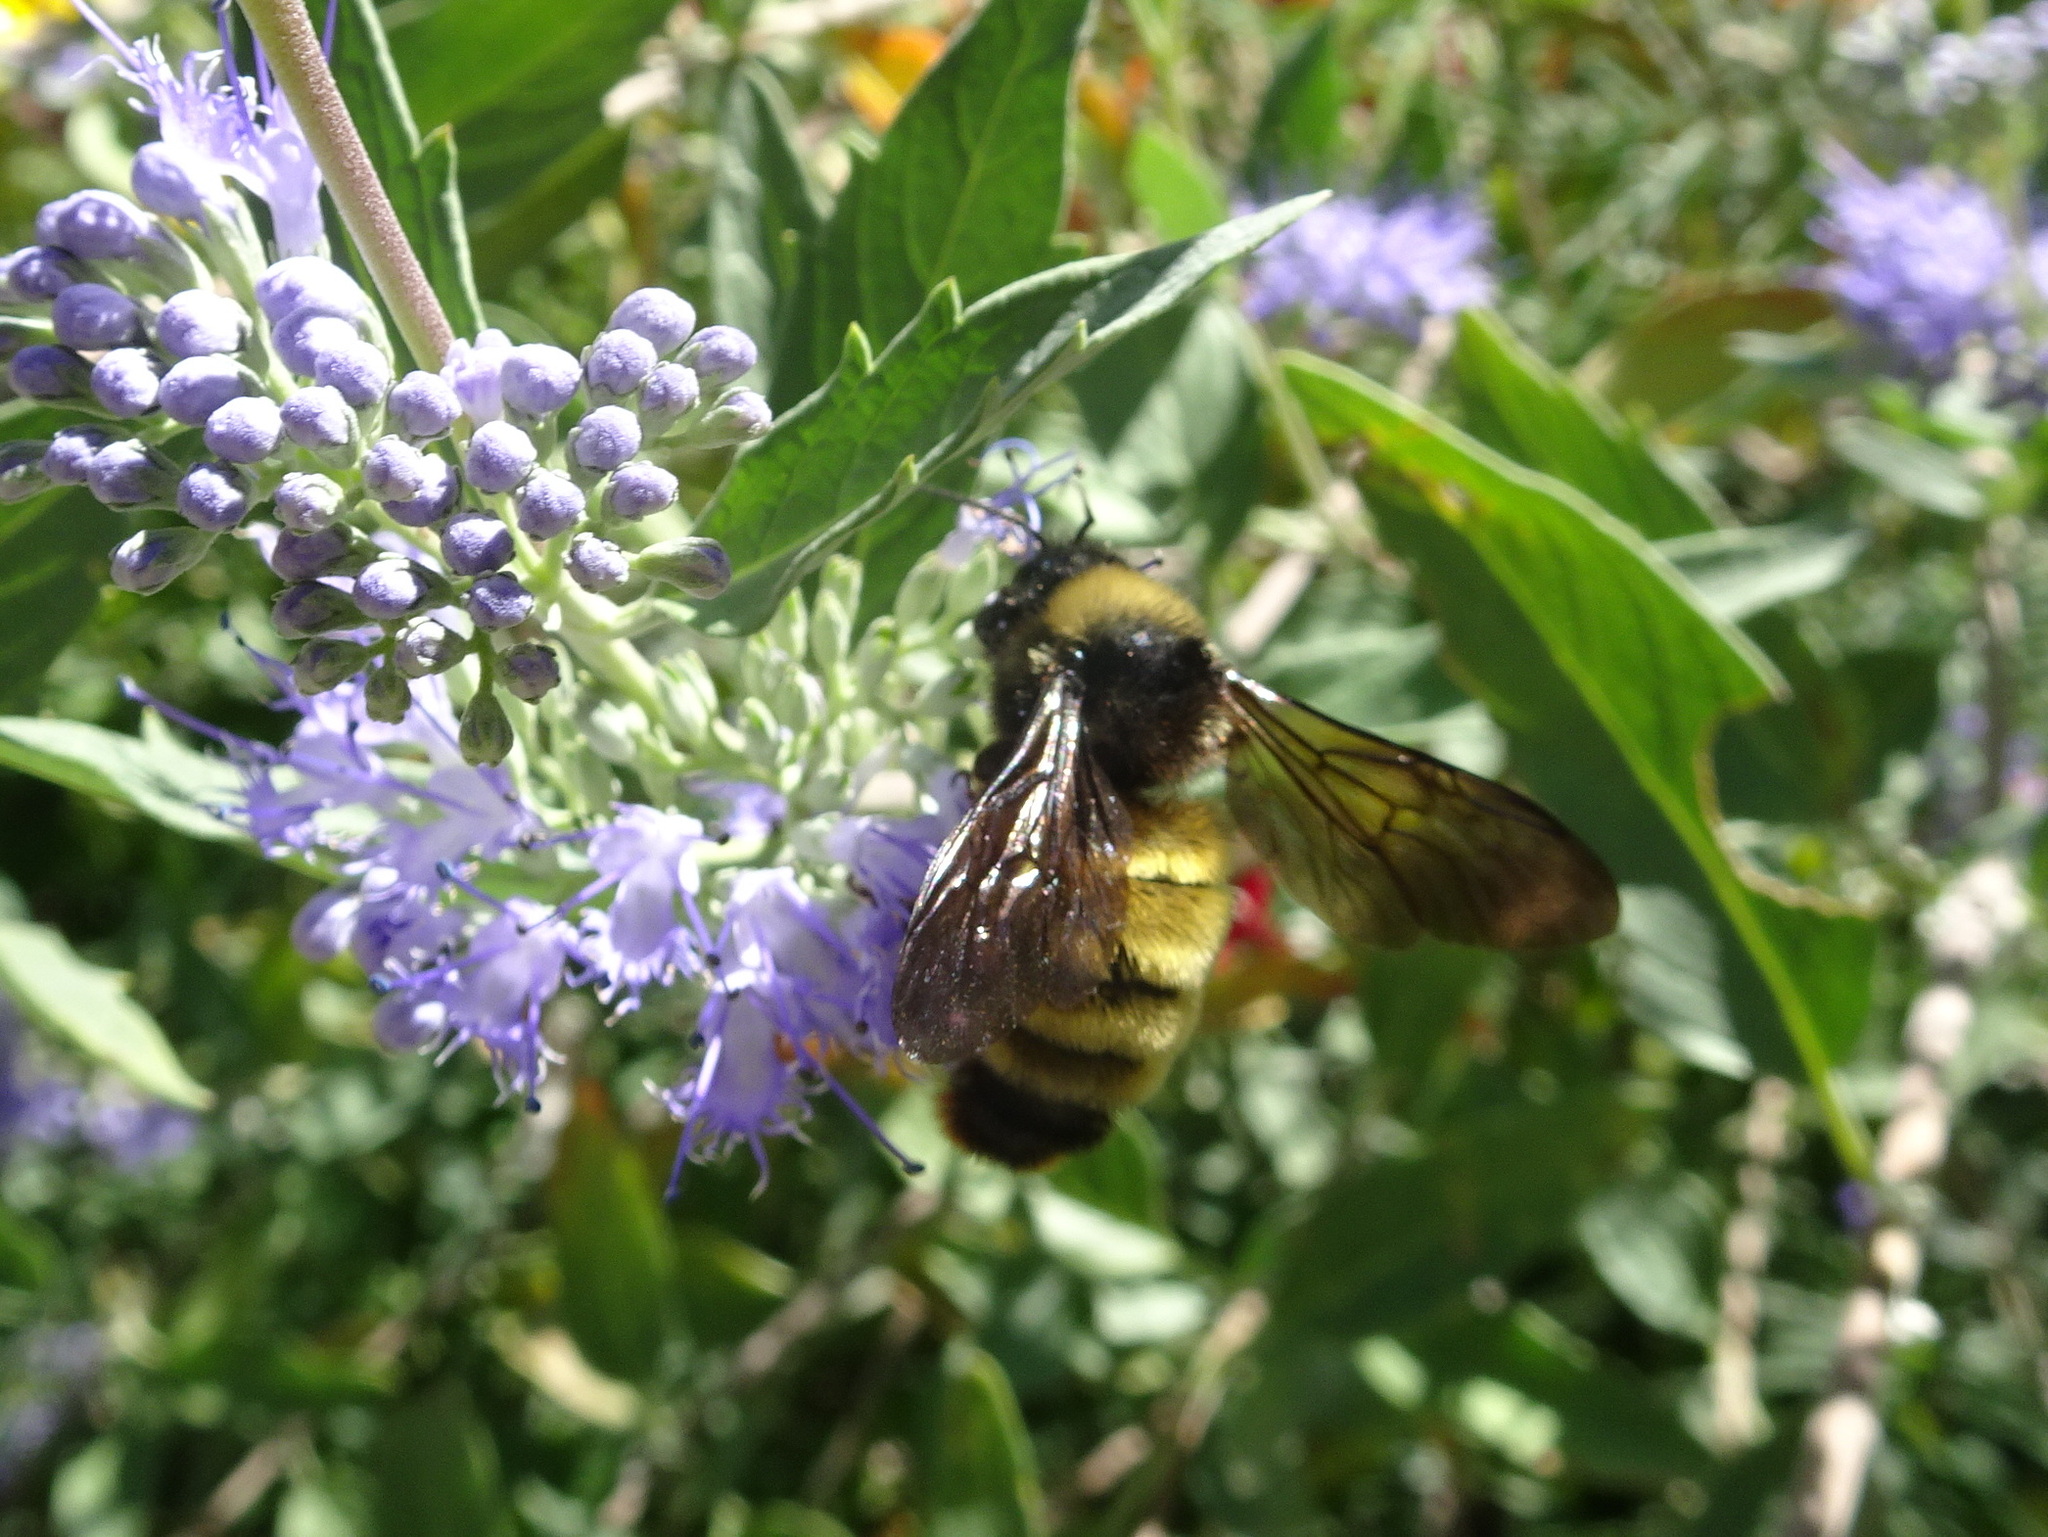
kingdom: Animalia
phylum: Arthropoda
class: Insecta
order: Hymenoptera
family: Apidae
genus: Bombus
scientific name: Bombus pensylvanicus
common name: Bumble bee
